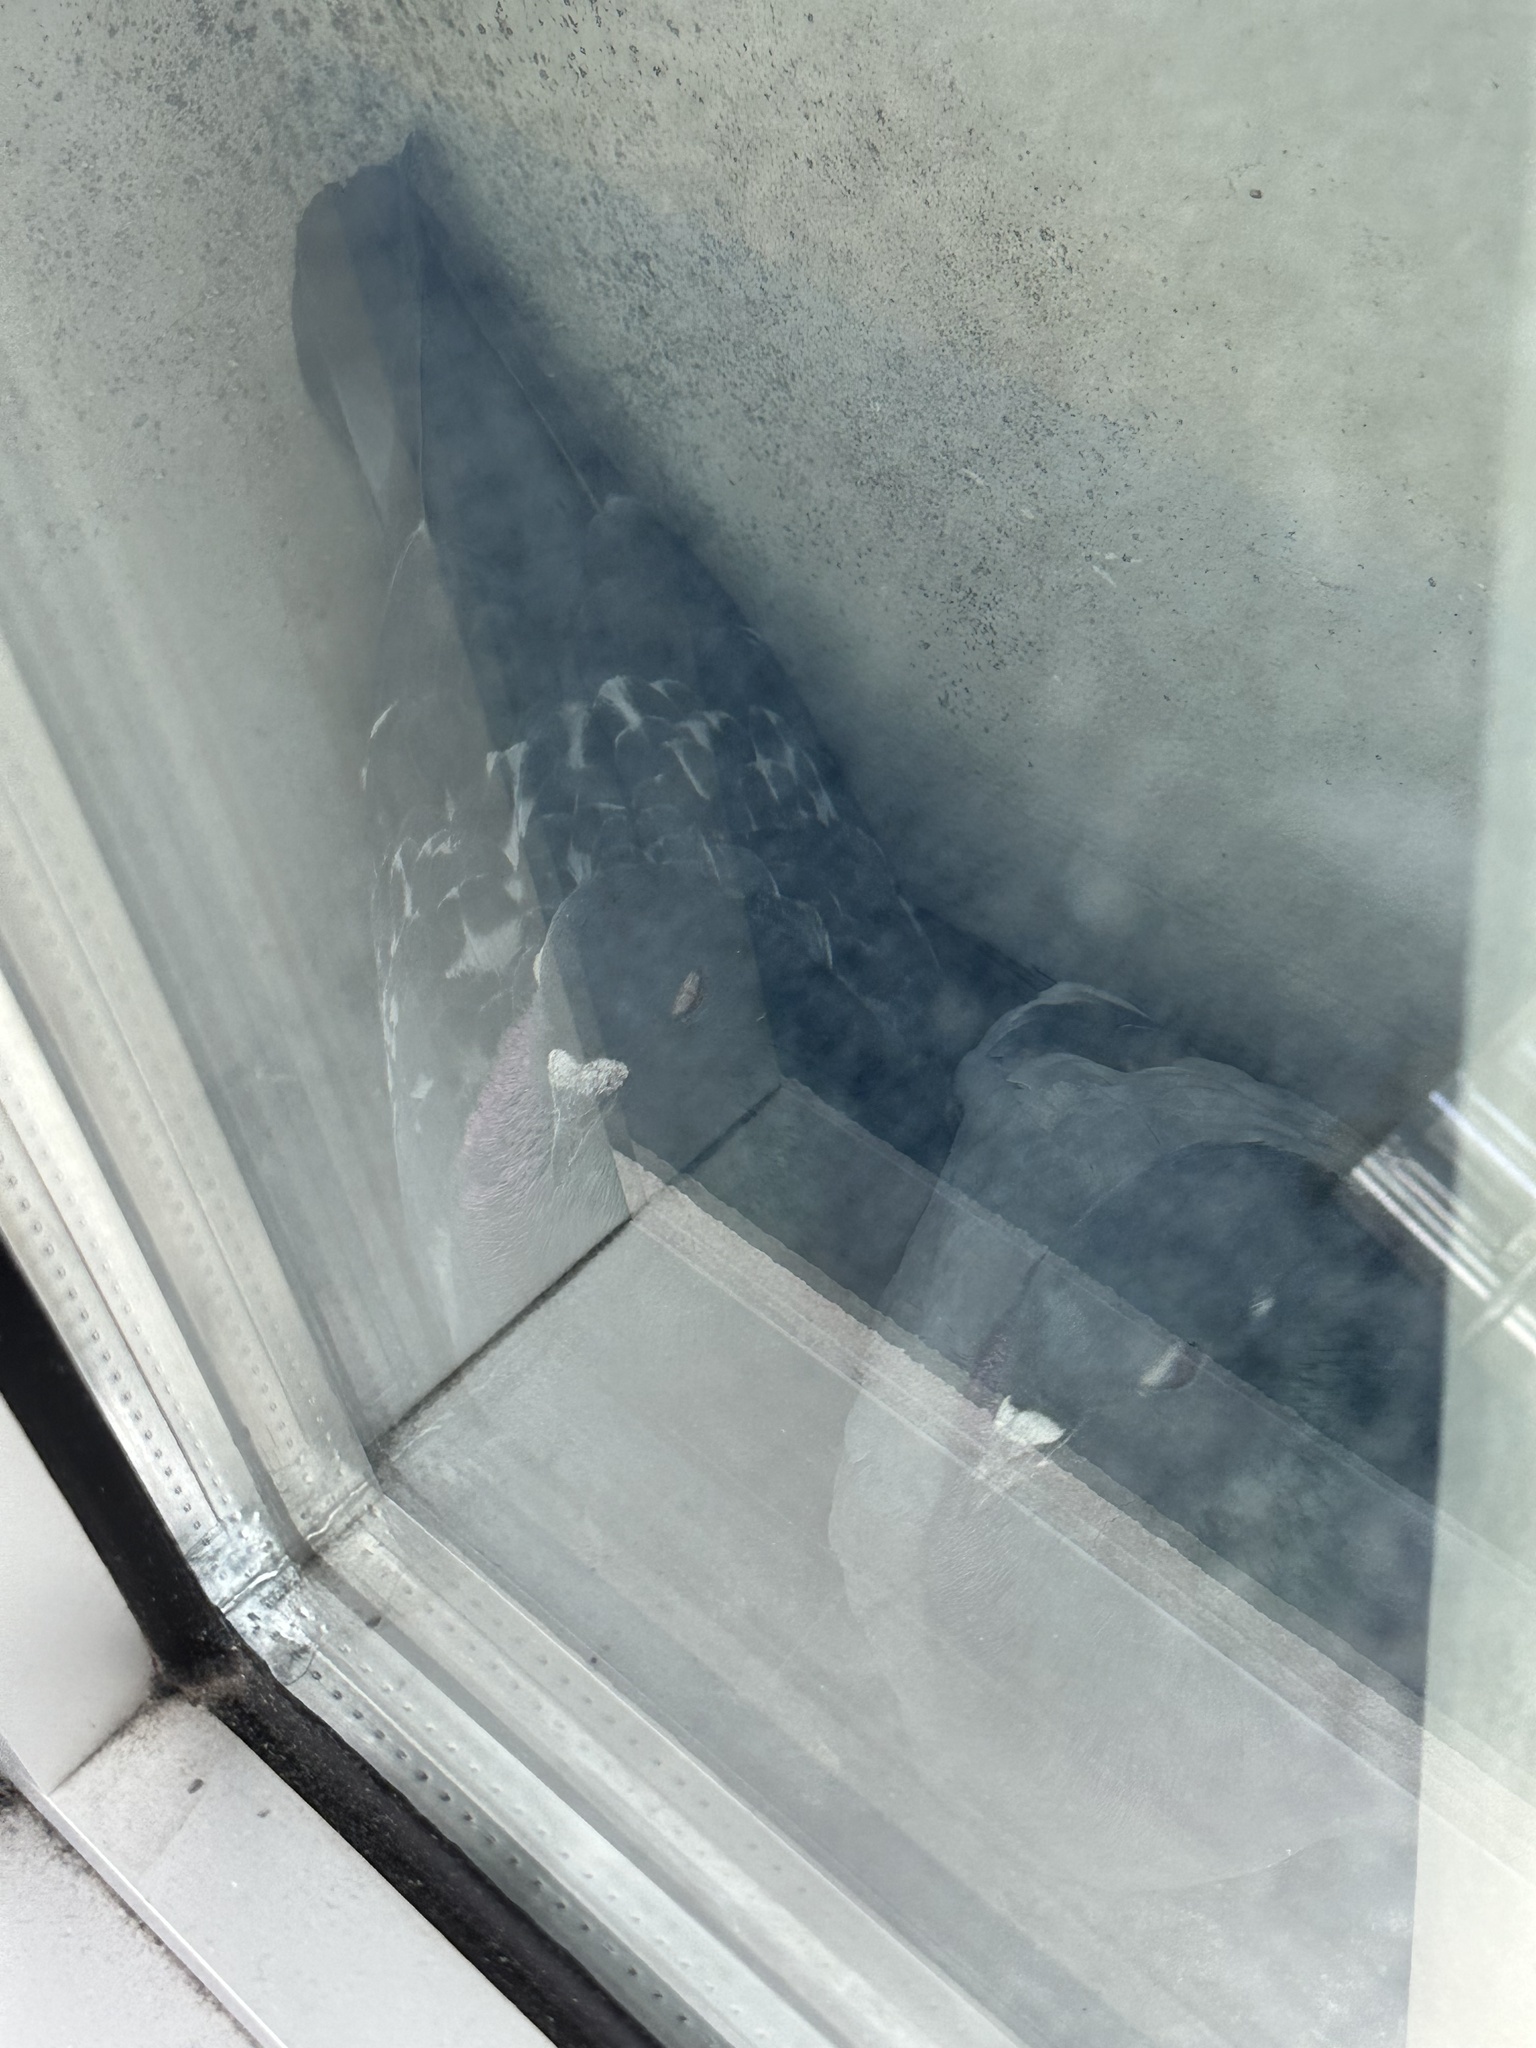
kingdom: Animalia
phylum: Chordata
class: Aves
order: Columbiformes
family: Columbidae
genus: Columba
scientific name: Columba livia
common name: Rock pigeon
